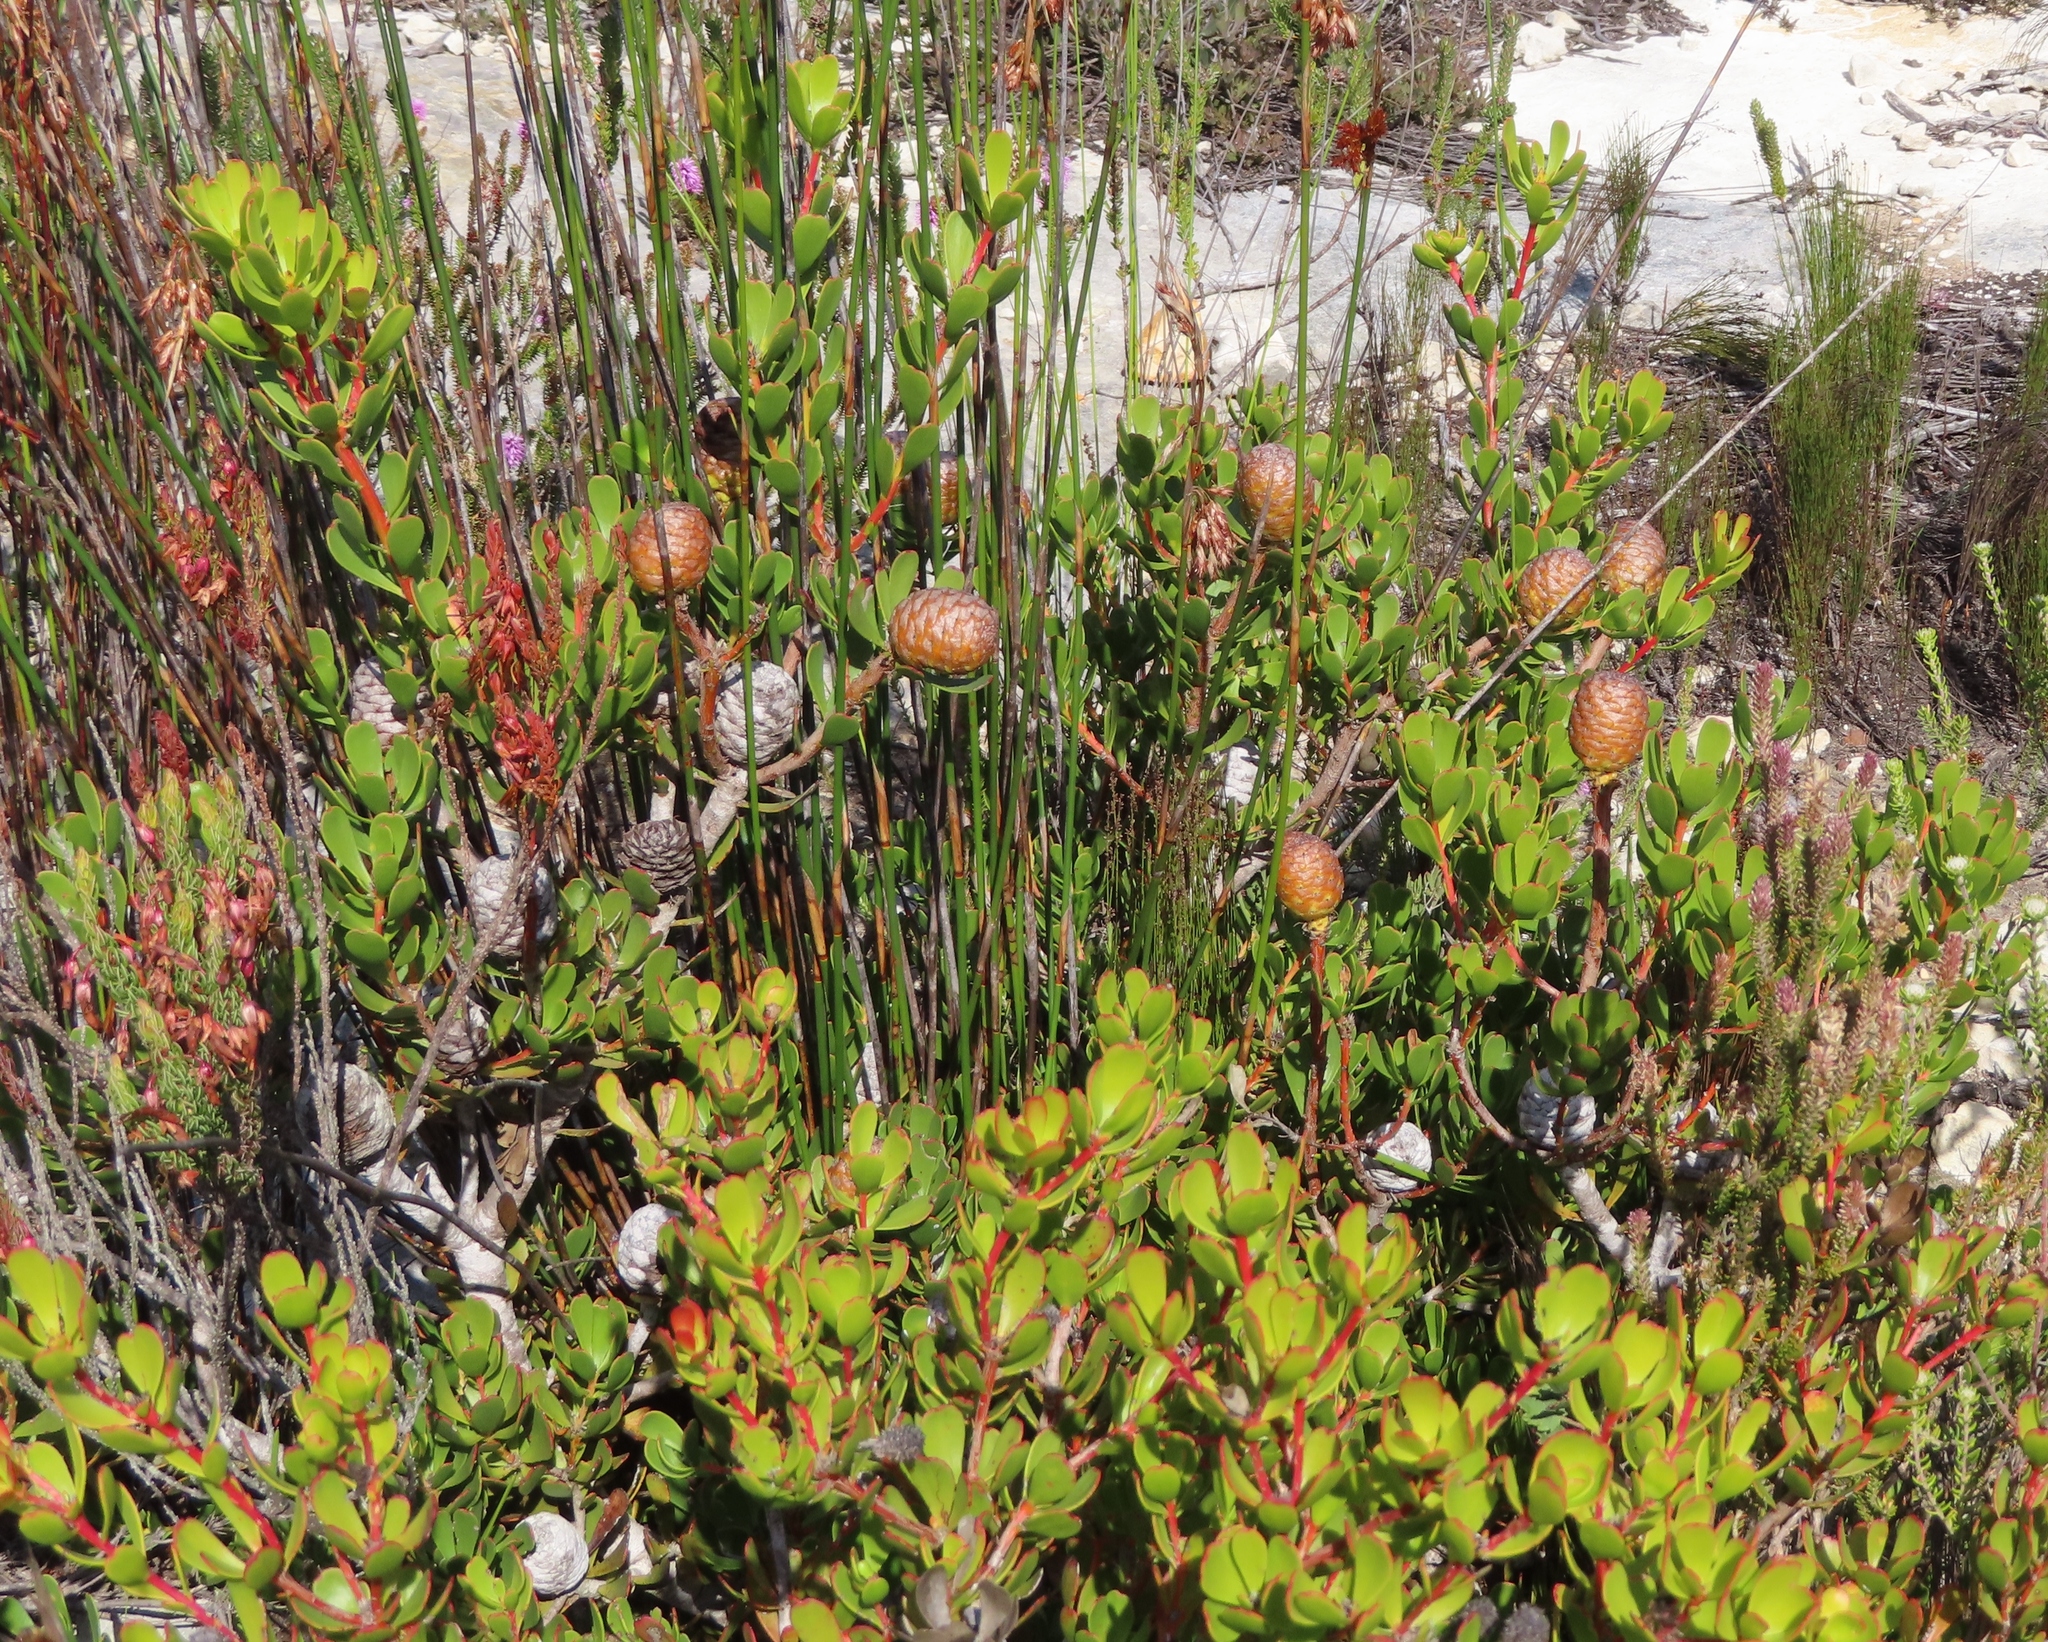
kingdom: Plantae
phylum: Tracheophyta
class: Magnoliopsida
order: Proteales
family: Proteaceae
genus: Leucadendron
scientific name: Leucadendron muirii
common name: Silver-ball conebush
